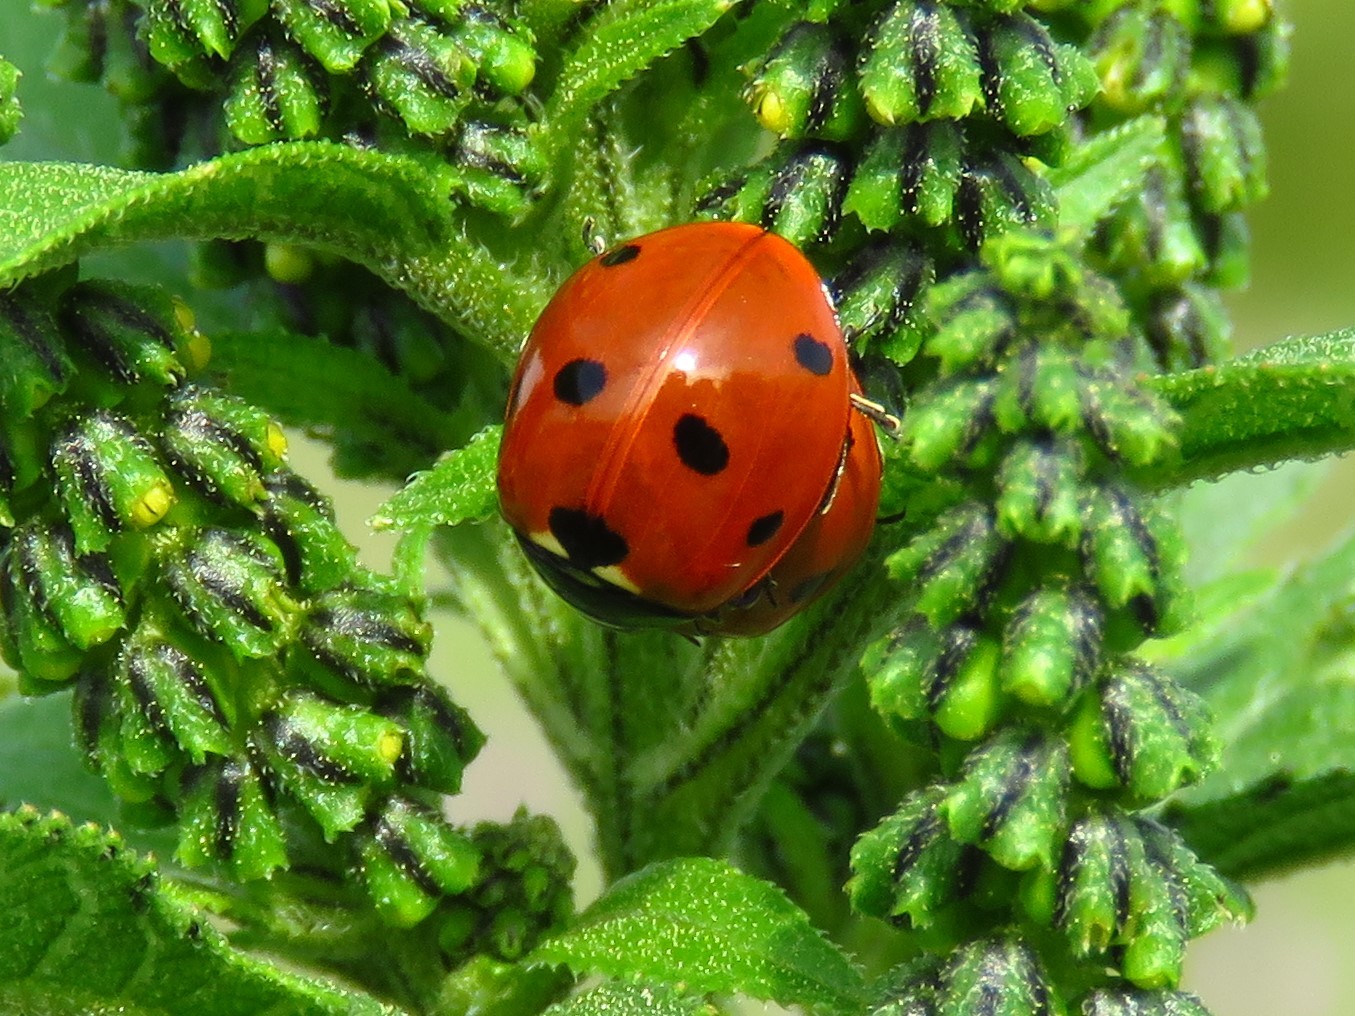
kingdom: Animalia
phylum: Arthropoda
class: Insecta
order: Coleoptera
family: Coccinellidae
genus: Coccinella
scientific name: Coccinella septempunctata
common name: Sevenspotted lady beetle
